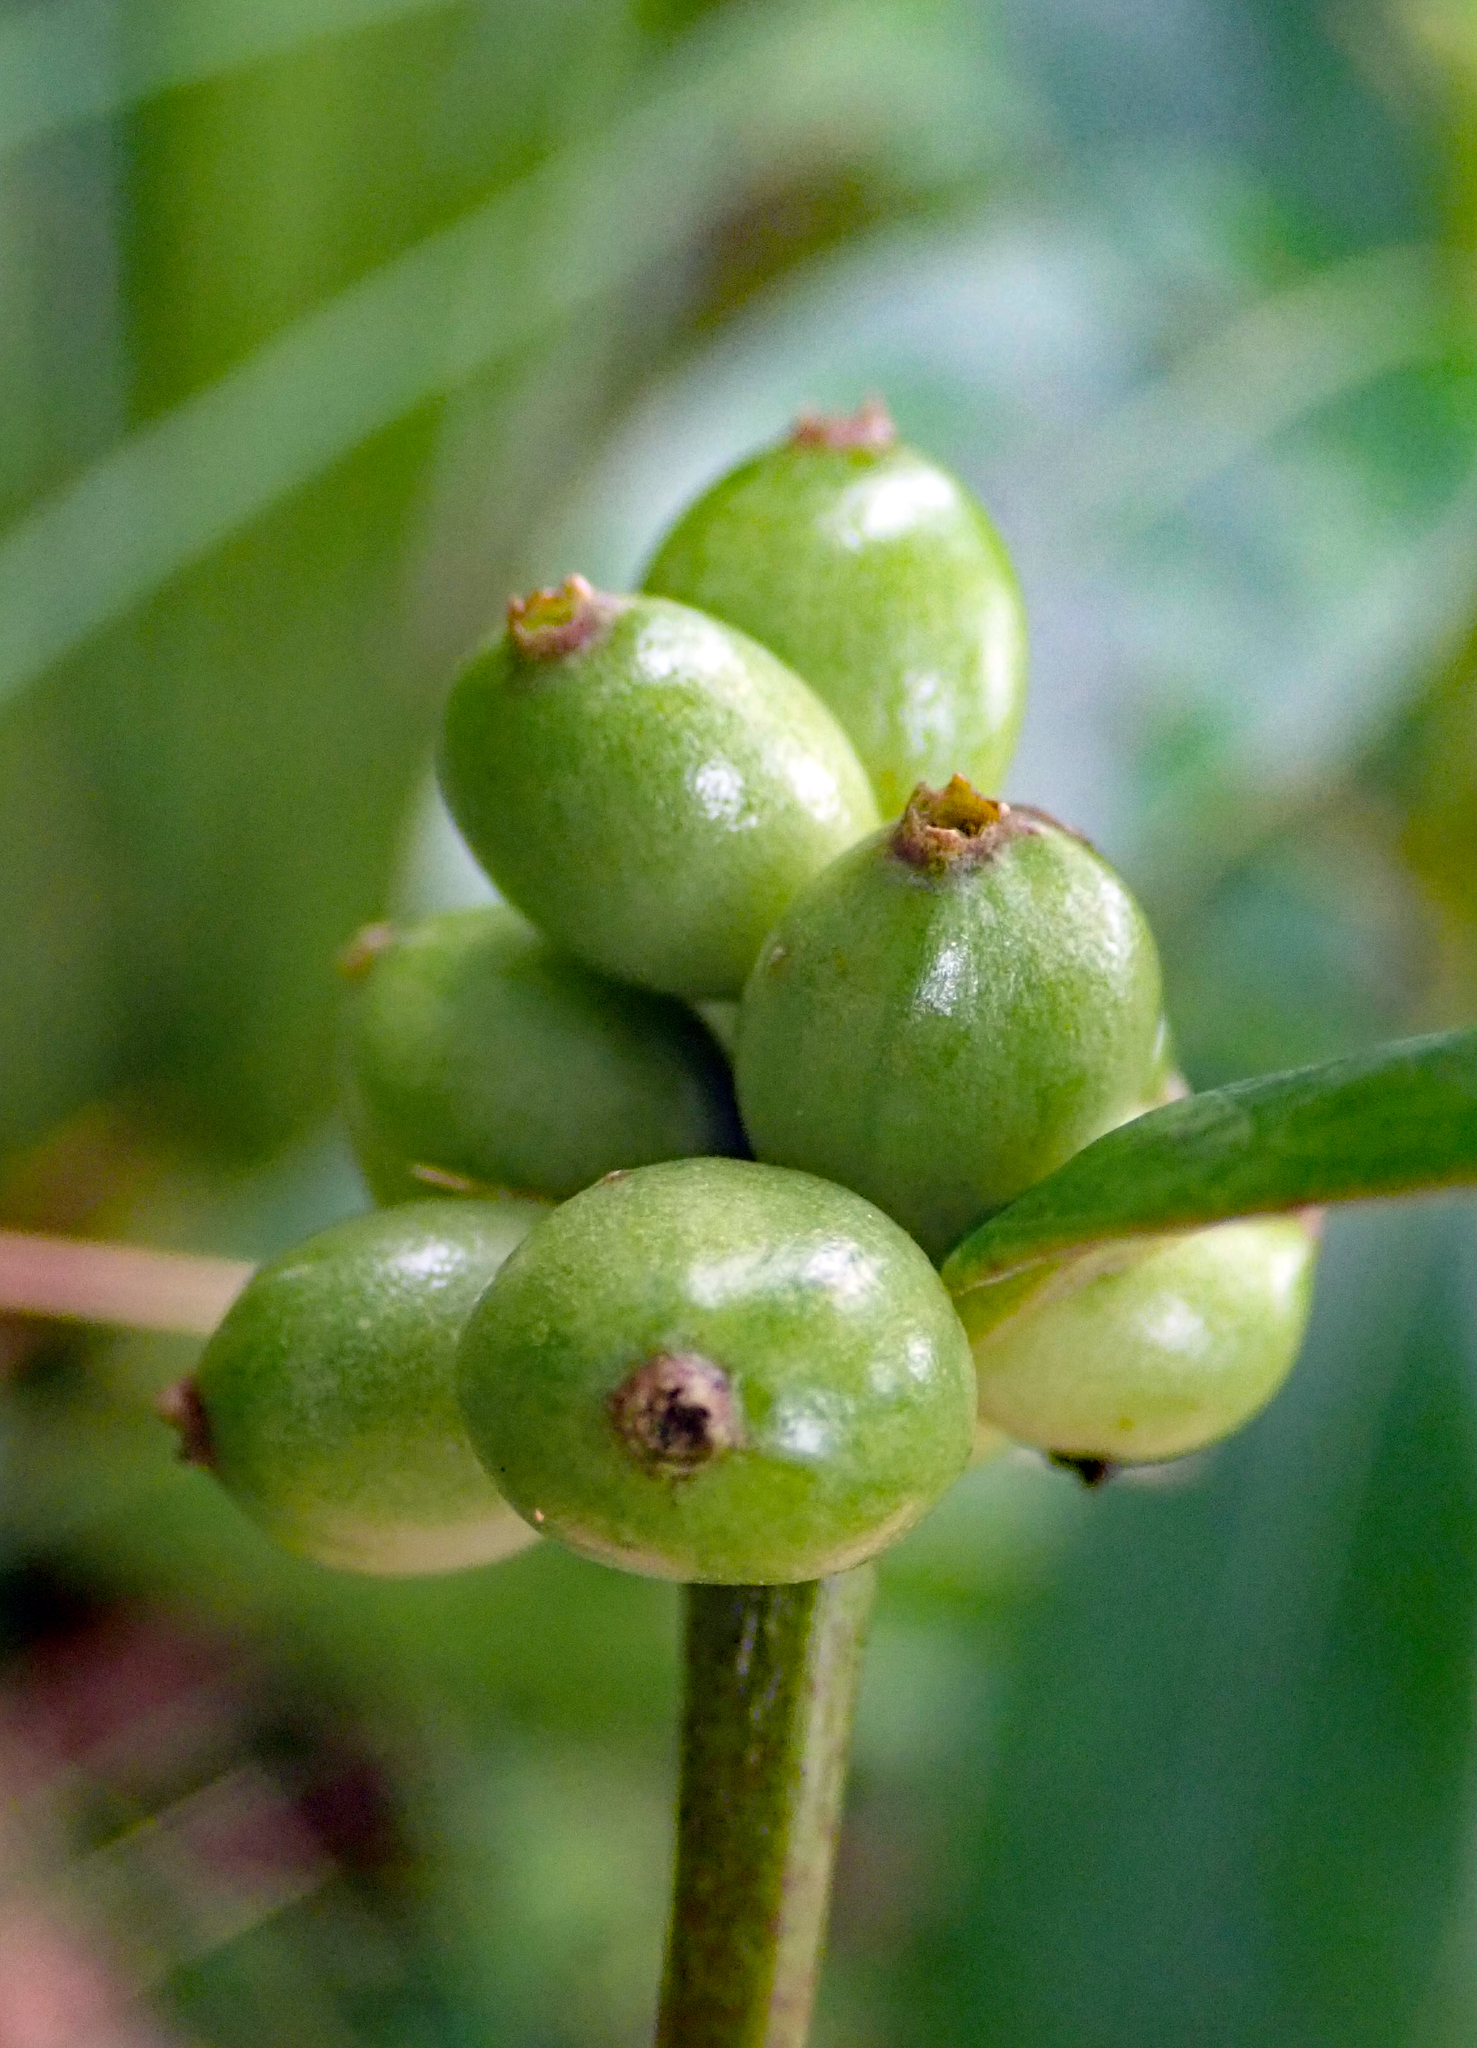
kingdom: Plantae
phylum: Tracheophyta
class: Magnoliopsida
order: Gentianales
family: Rubiaceae
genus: Coprosma
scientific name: Coprosma dodonaeifolia
